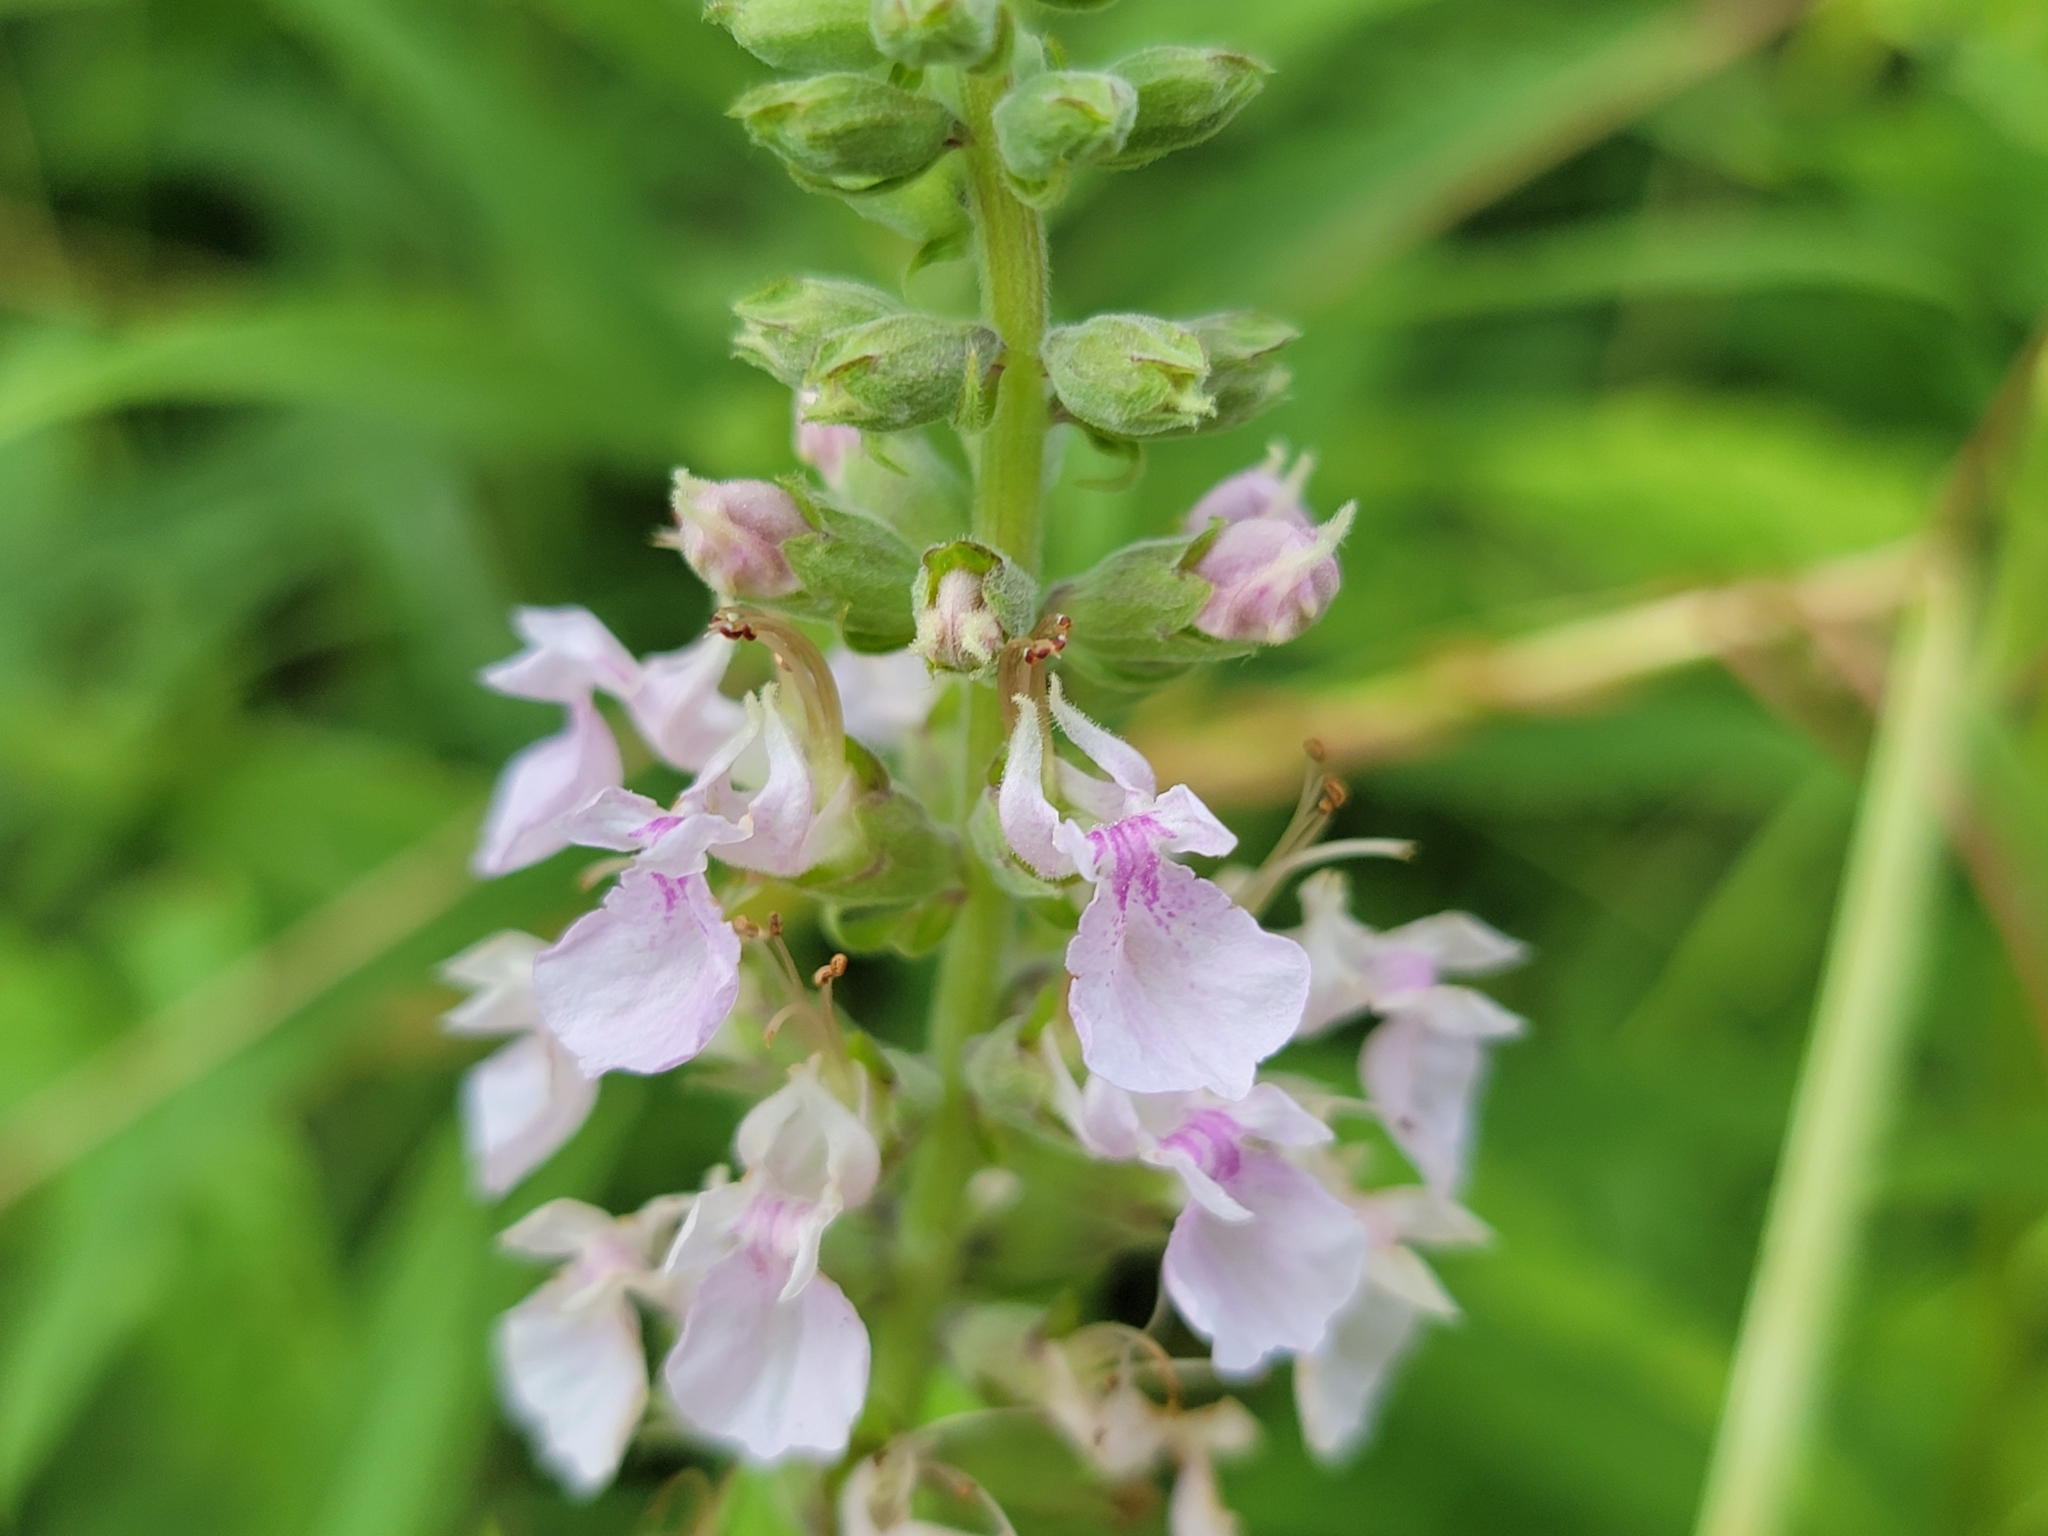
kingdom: Plantae
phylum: Tracheophyta
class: Magnoliopsida
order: Lamiales
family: Lamiaceae
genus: Teucrium
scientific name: Teucrium canadense
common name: American germander
